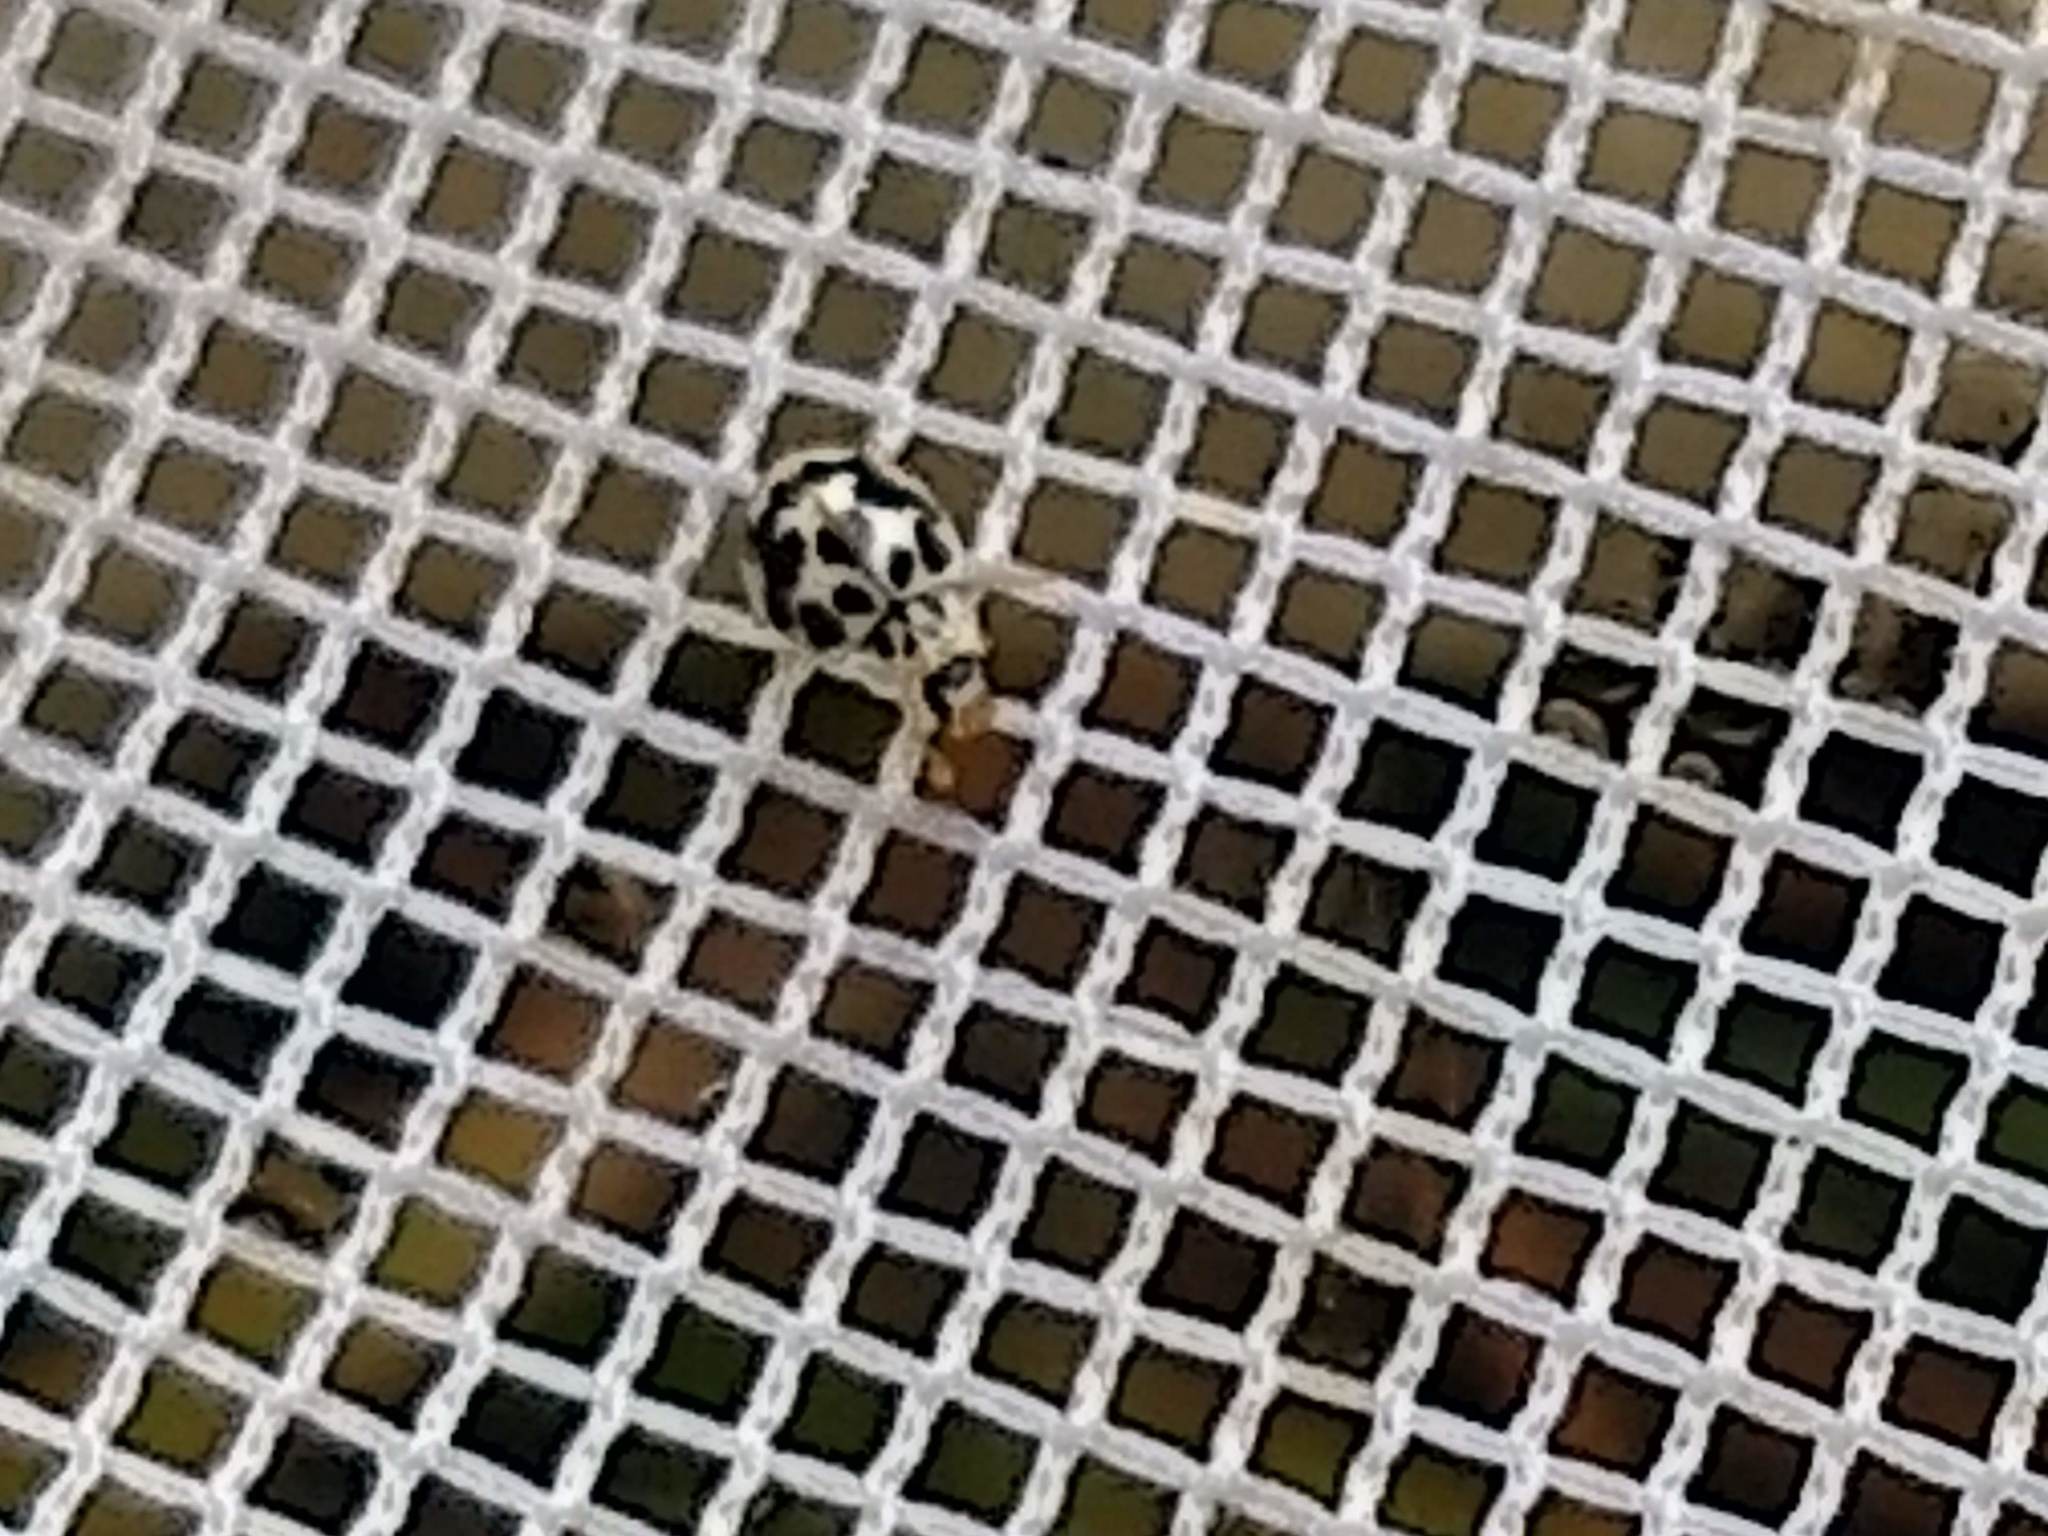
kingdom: Animalia
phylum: Arthropoda
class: Insecta
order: Coleoptera
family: Coccinellidae
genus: Psyllobora
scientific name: Psyllobora vigintimaculata
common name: Ladybird beetle
